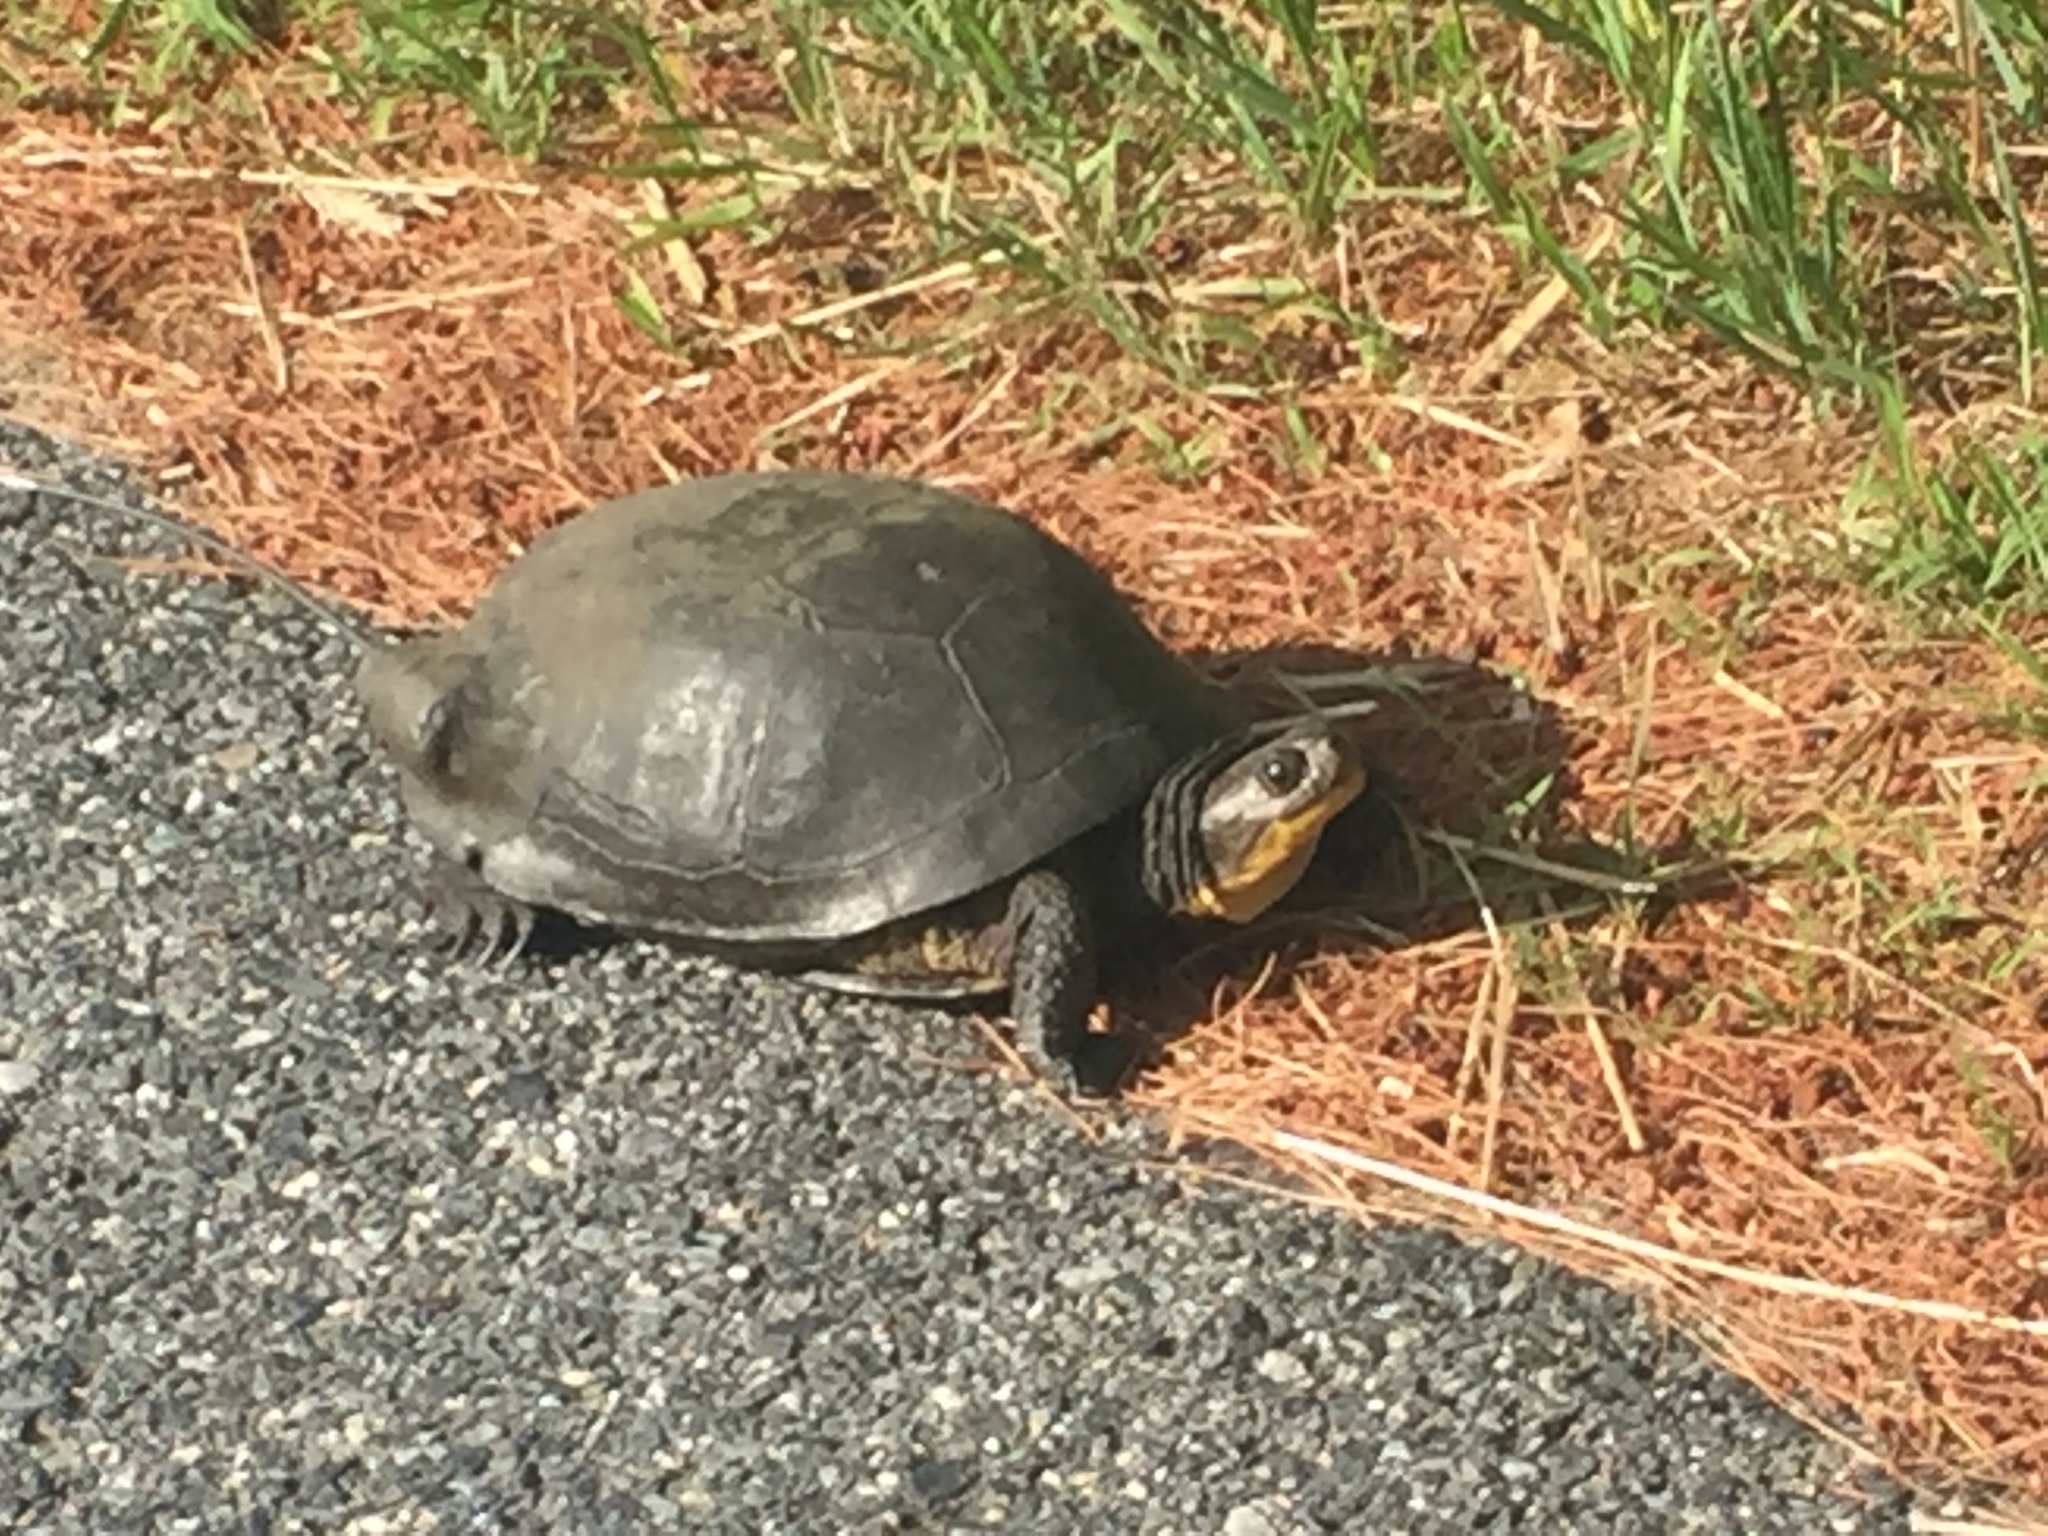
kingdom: Animalia
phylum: Chordata
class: Testudines
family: Emydidae
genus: Emys
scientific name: Emys blandingii
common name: Blanding's turtle
